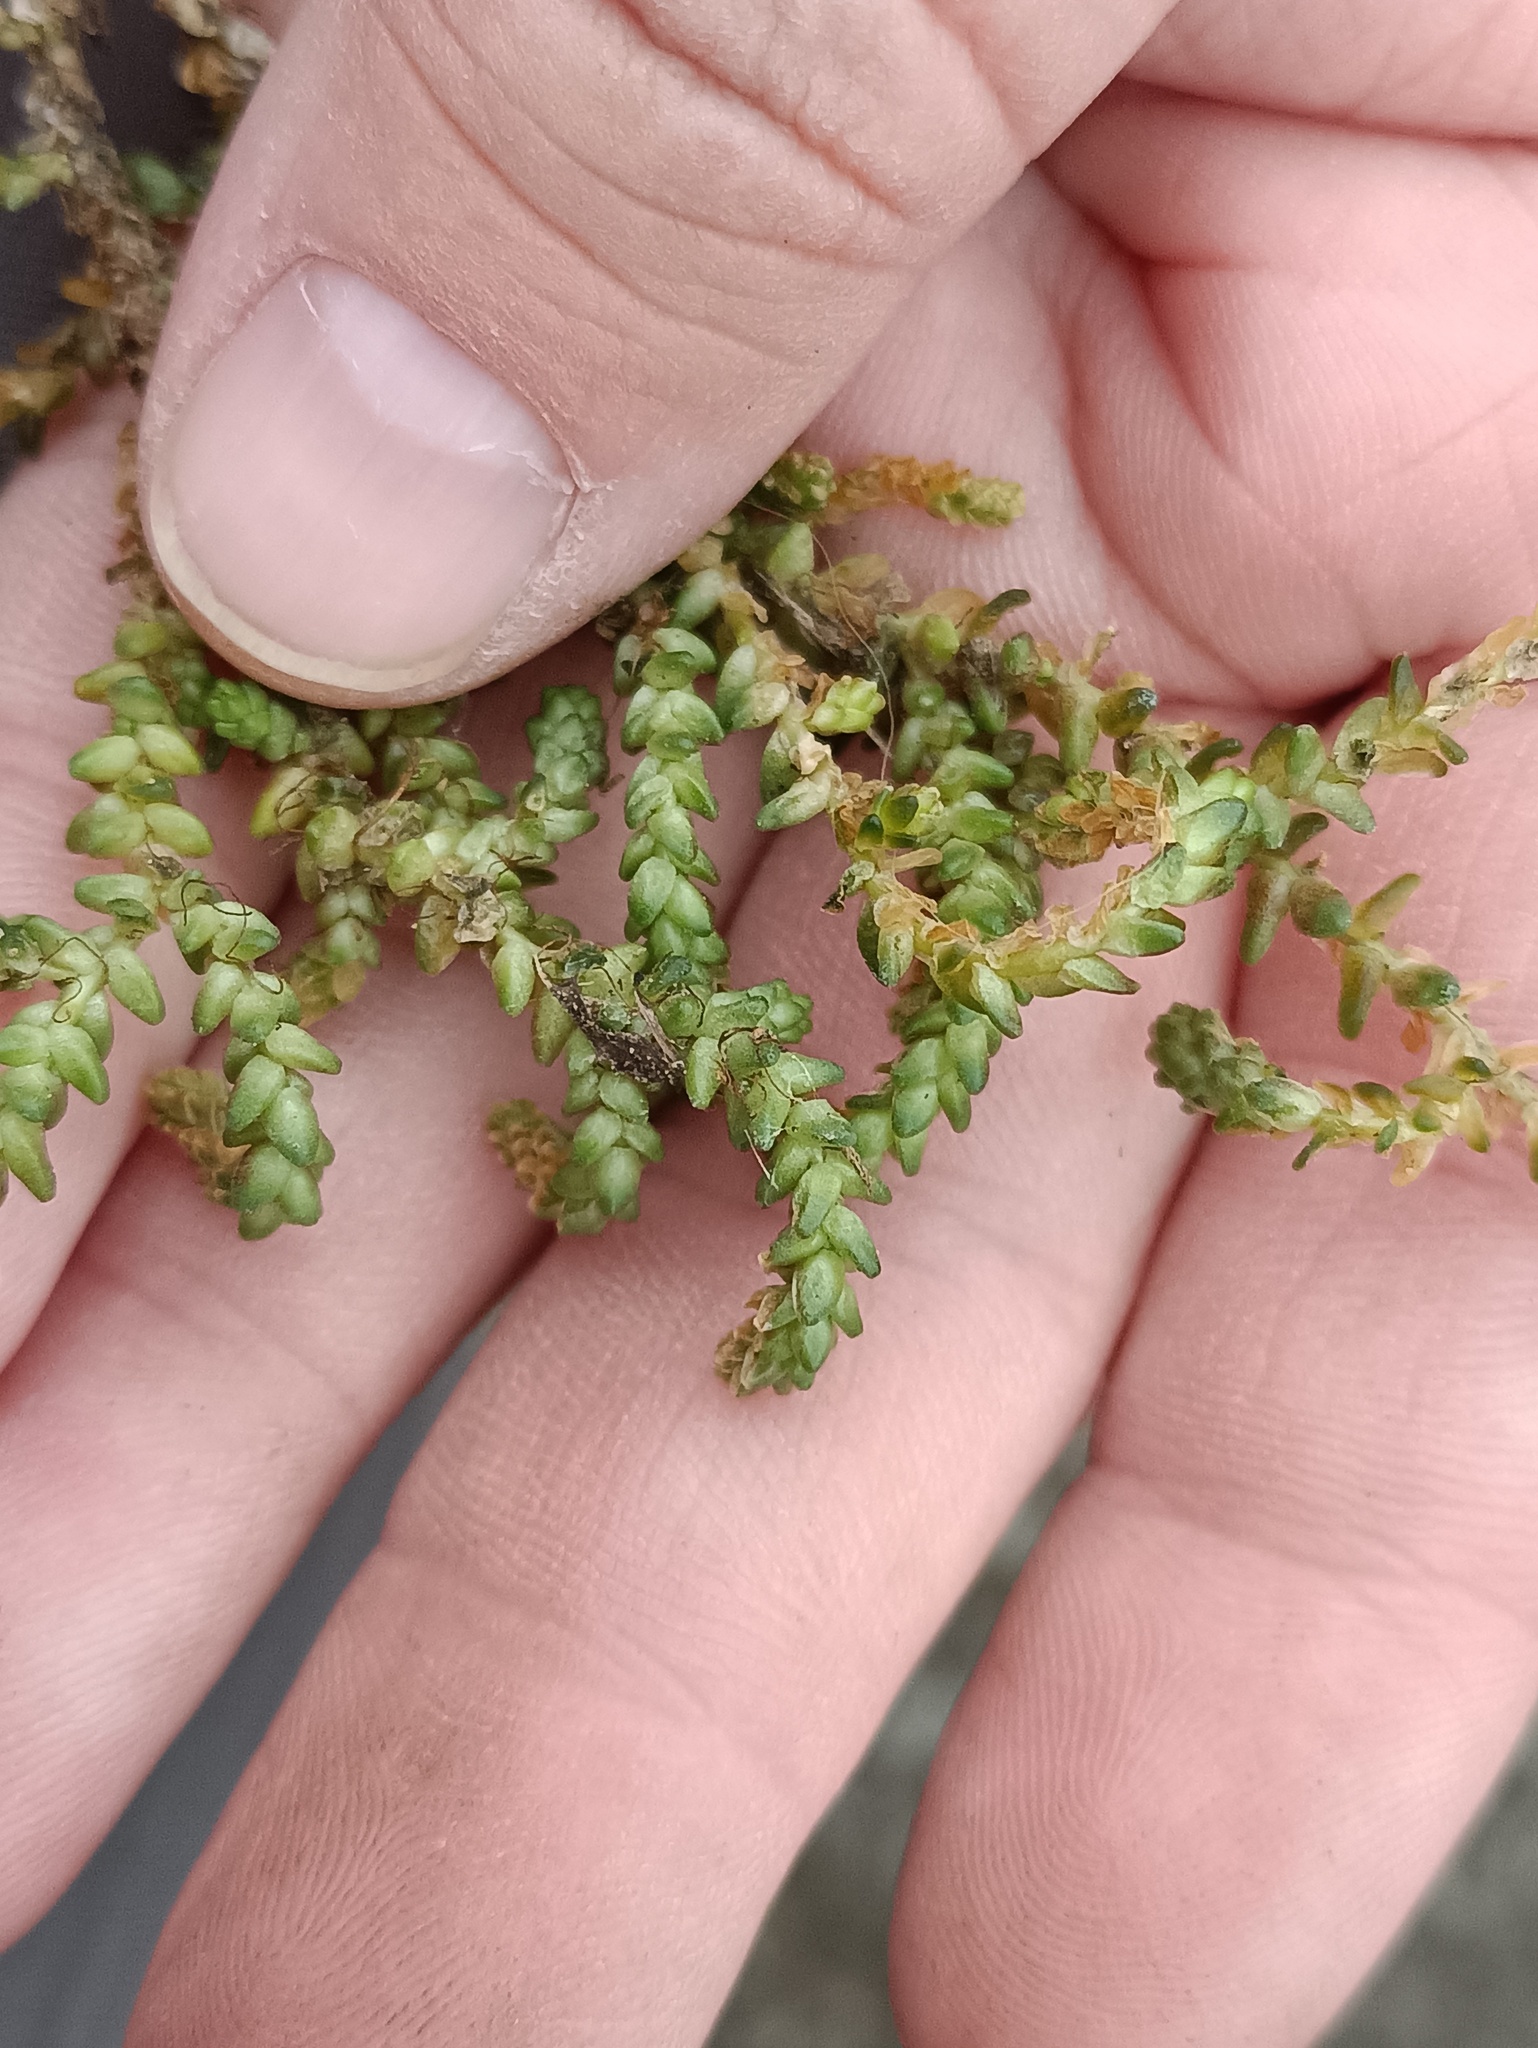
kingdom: Plantae
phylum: Tracheophyta
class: Magnoliopsida
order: Saxifragales
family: Crassulaceae
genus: Sedum
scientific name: Sedum acre
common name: Biting stonecrop
